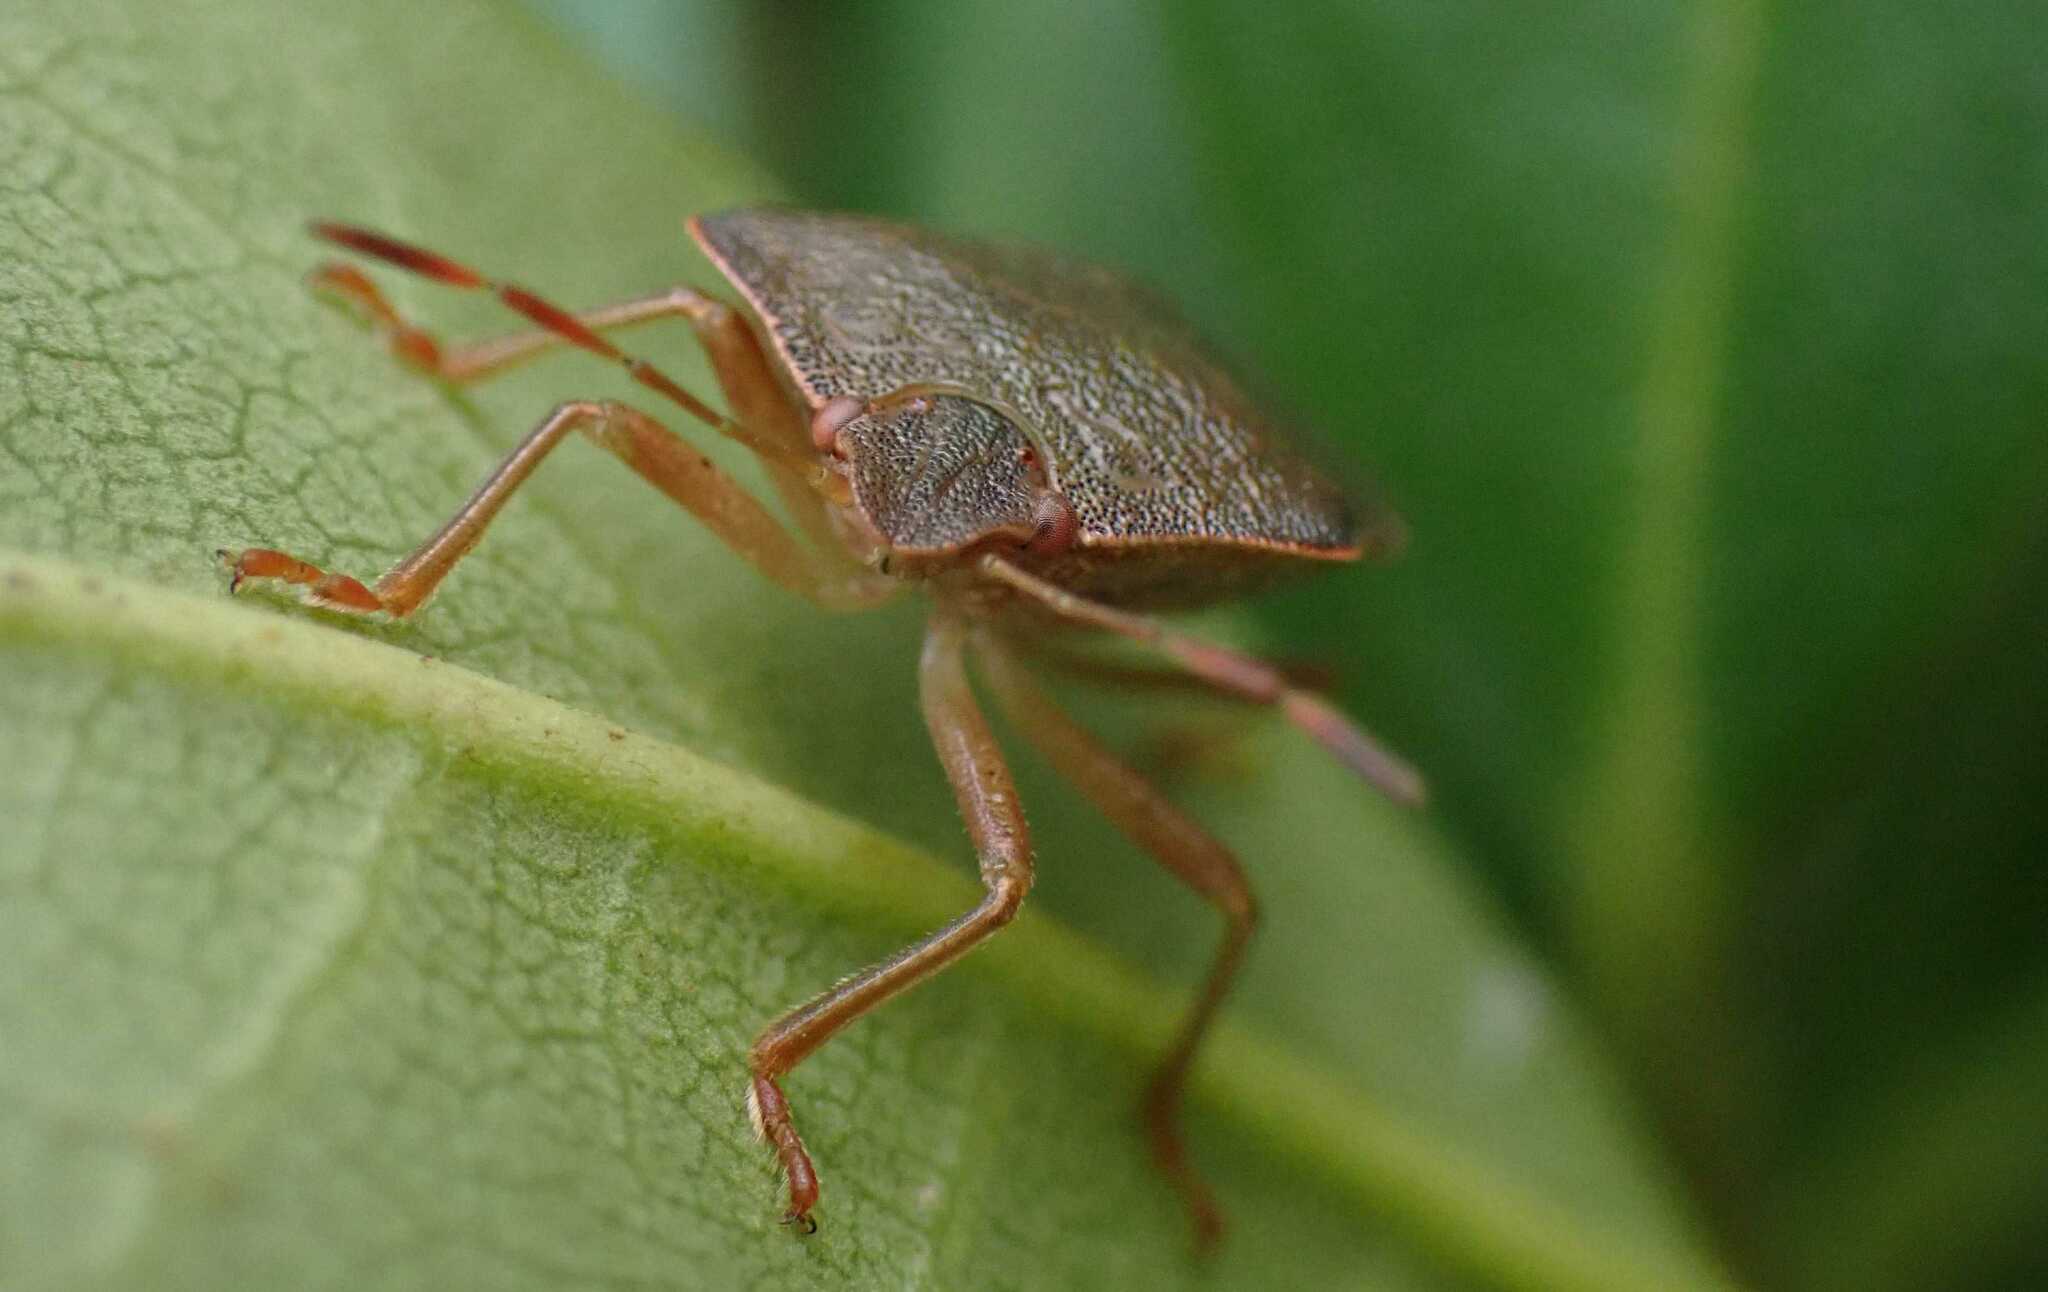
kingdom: Animalia
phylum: Arthropoda
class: Insecta
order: Hemiptera
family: Pentatomidae
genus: Palomena
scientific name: Palomena prasina
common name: Green shieldbug
